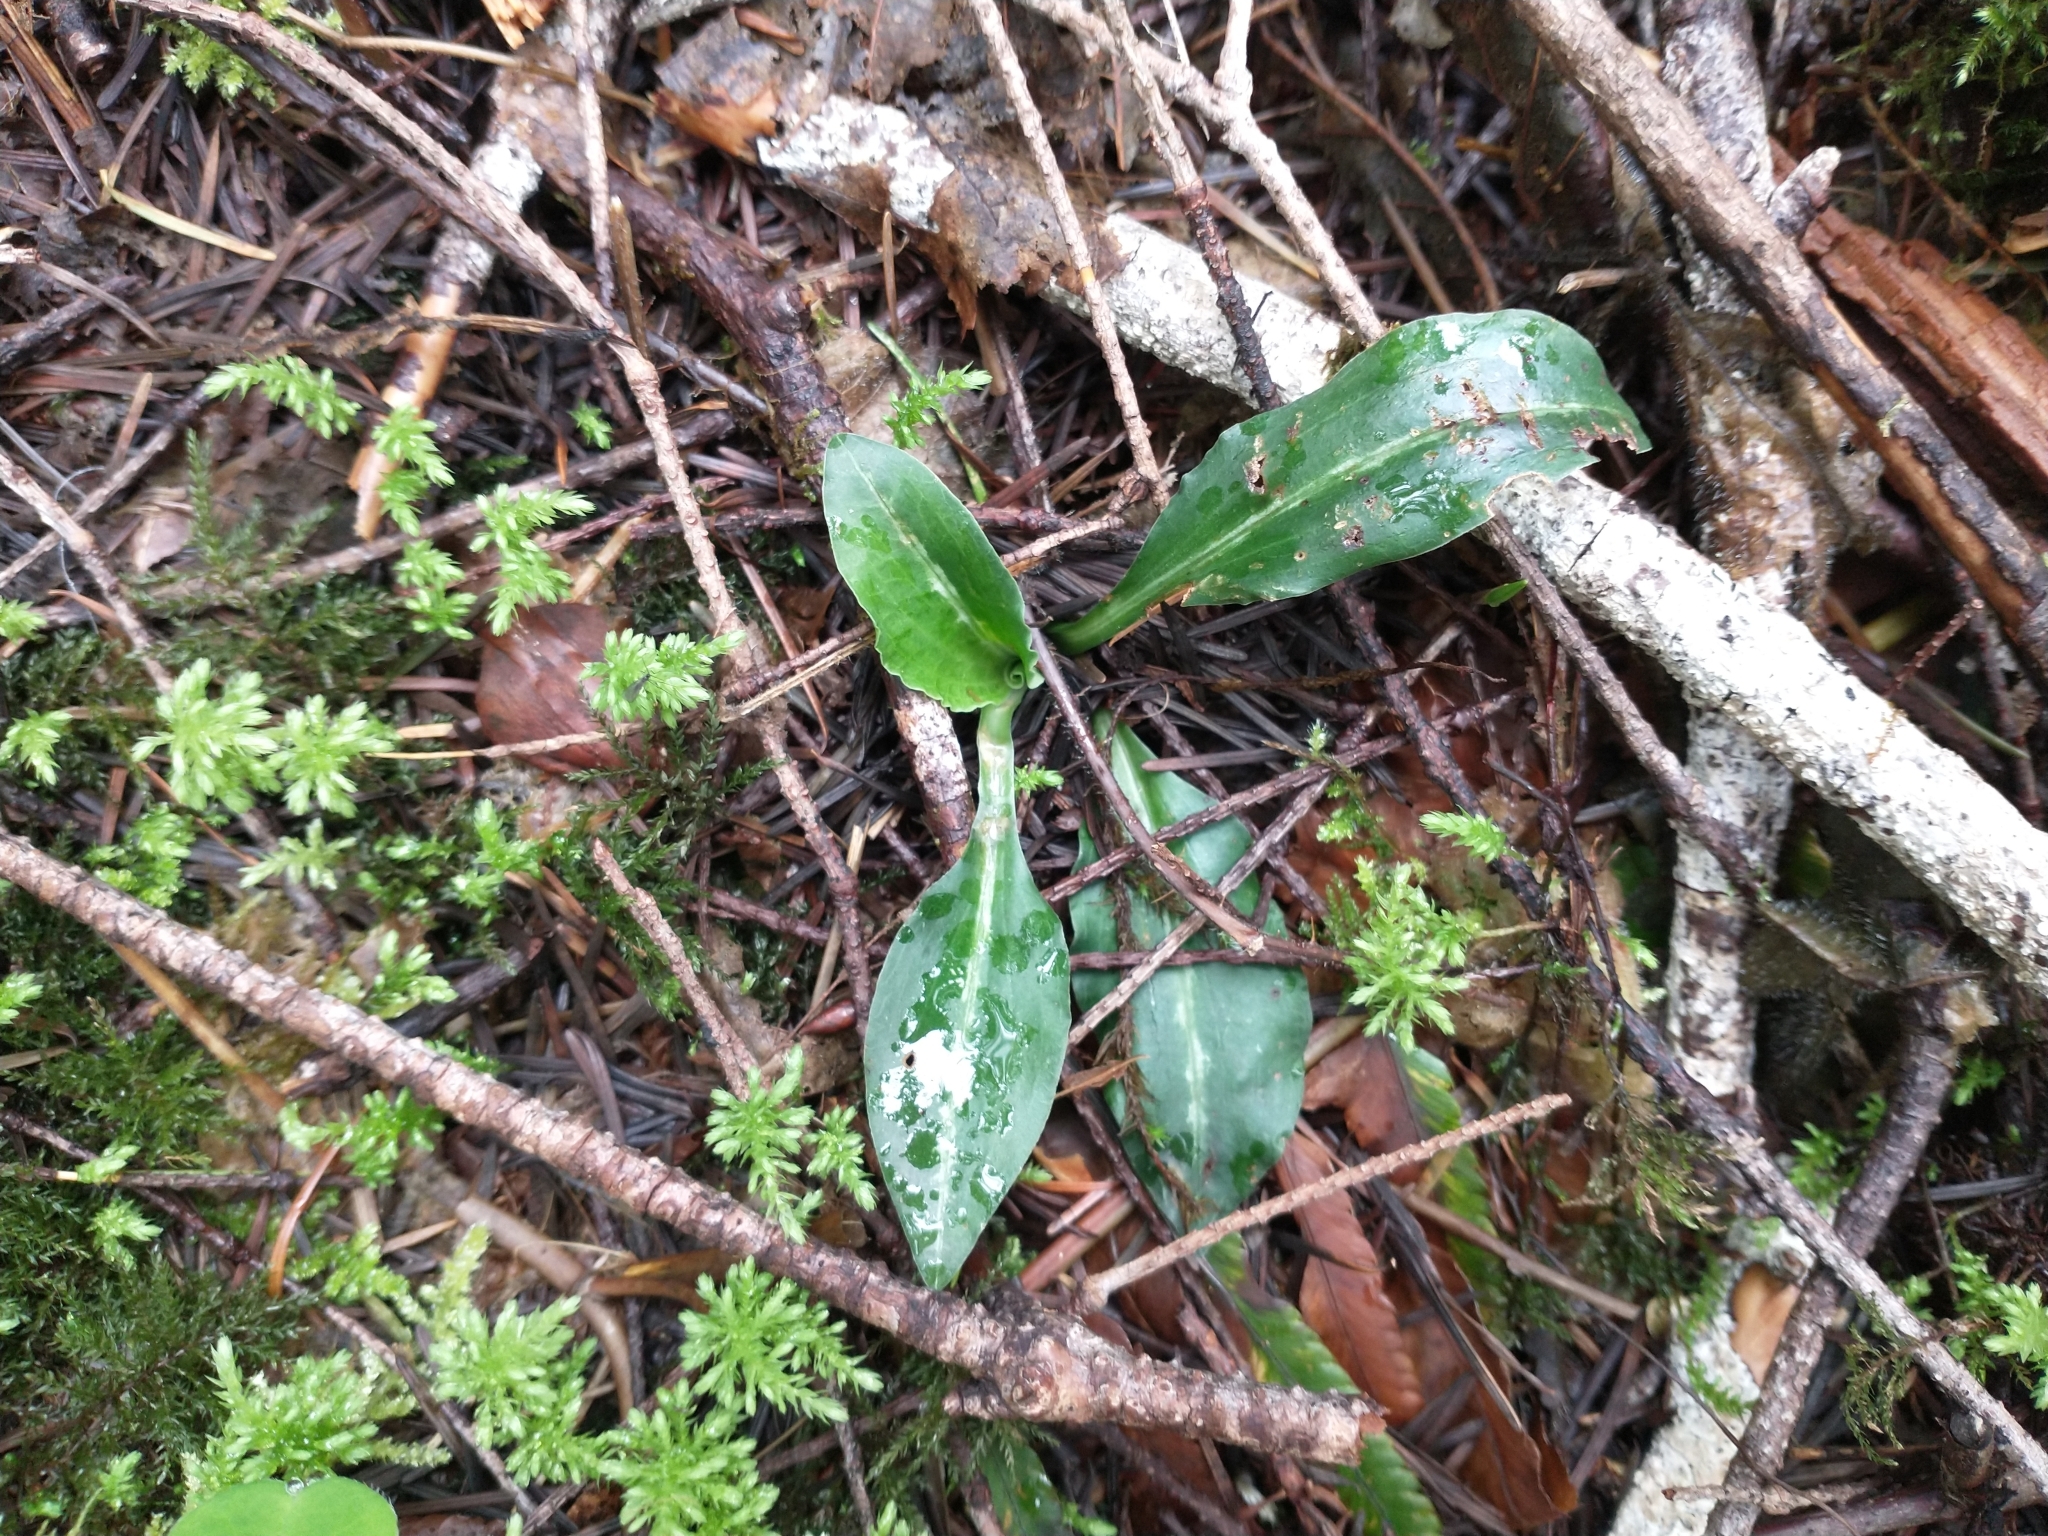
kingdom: Plantae
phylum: Tracheophyta
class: Liliopsida
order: Asparagales
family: Orchidaceae
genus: Goodyera
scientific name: Goodyera oblongifolia
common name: Giant rattlesnake-plantain
